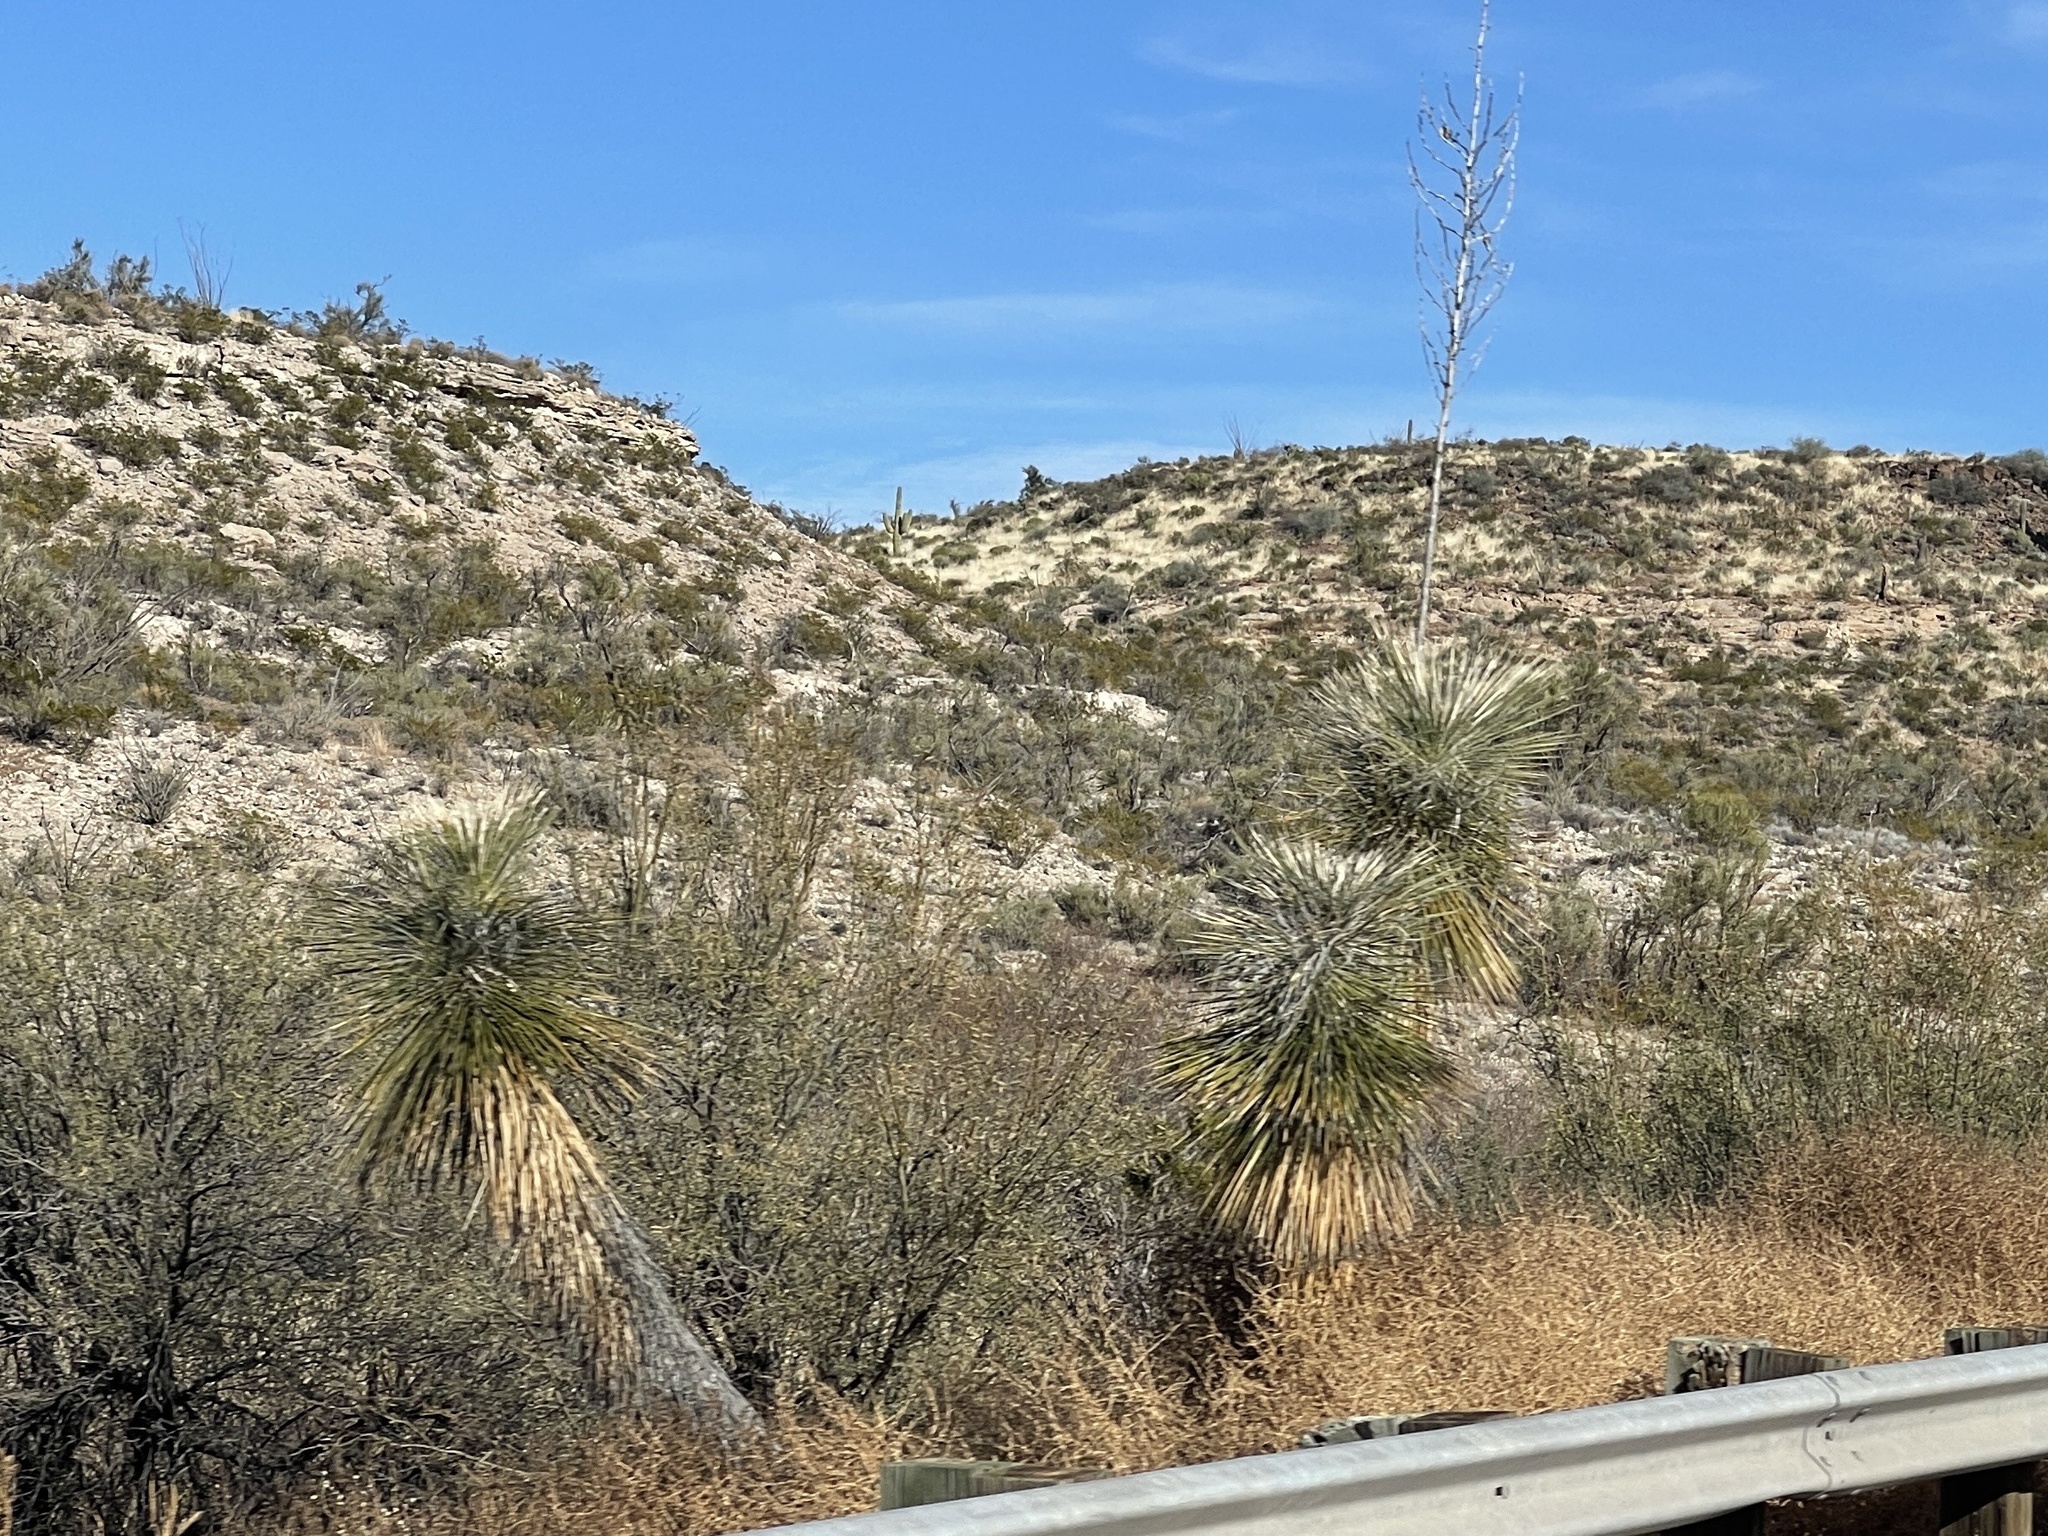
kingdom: Plantae
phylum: Tracheophyta
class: Liliopsida
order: Asparagales
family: Asparagaceae
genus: Yucca
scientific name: Yucca elata
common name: Palmella
